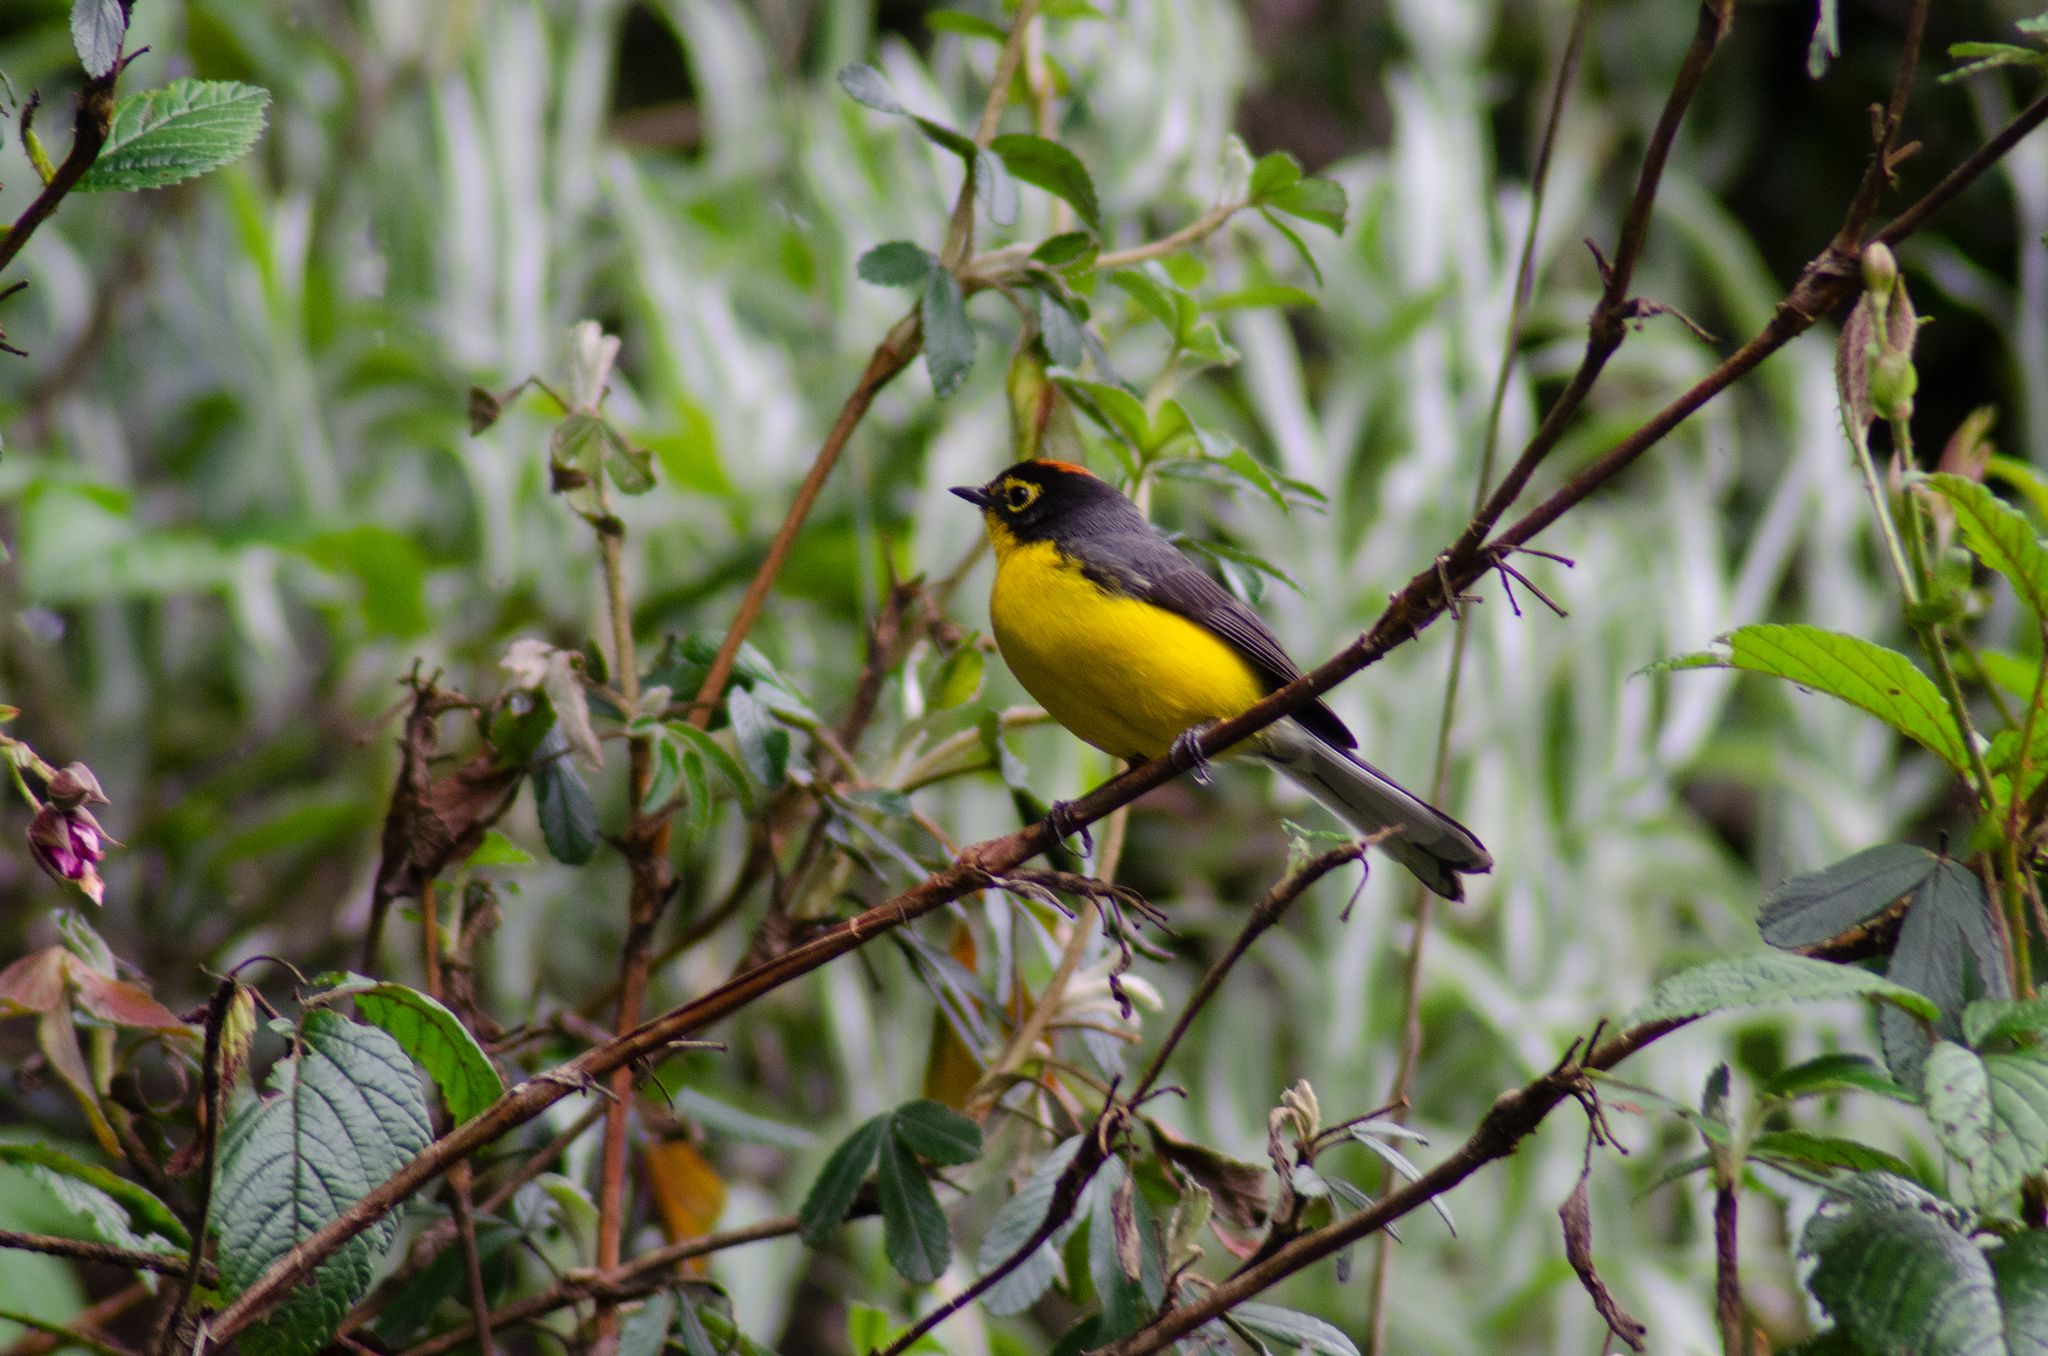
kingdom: Animalia
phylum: Chordata
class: Aves
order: Passeriformes
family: Parulidae
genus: Myioborus
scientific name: Myioborus melanocephalus
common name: Spectacled whitestart
